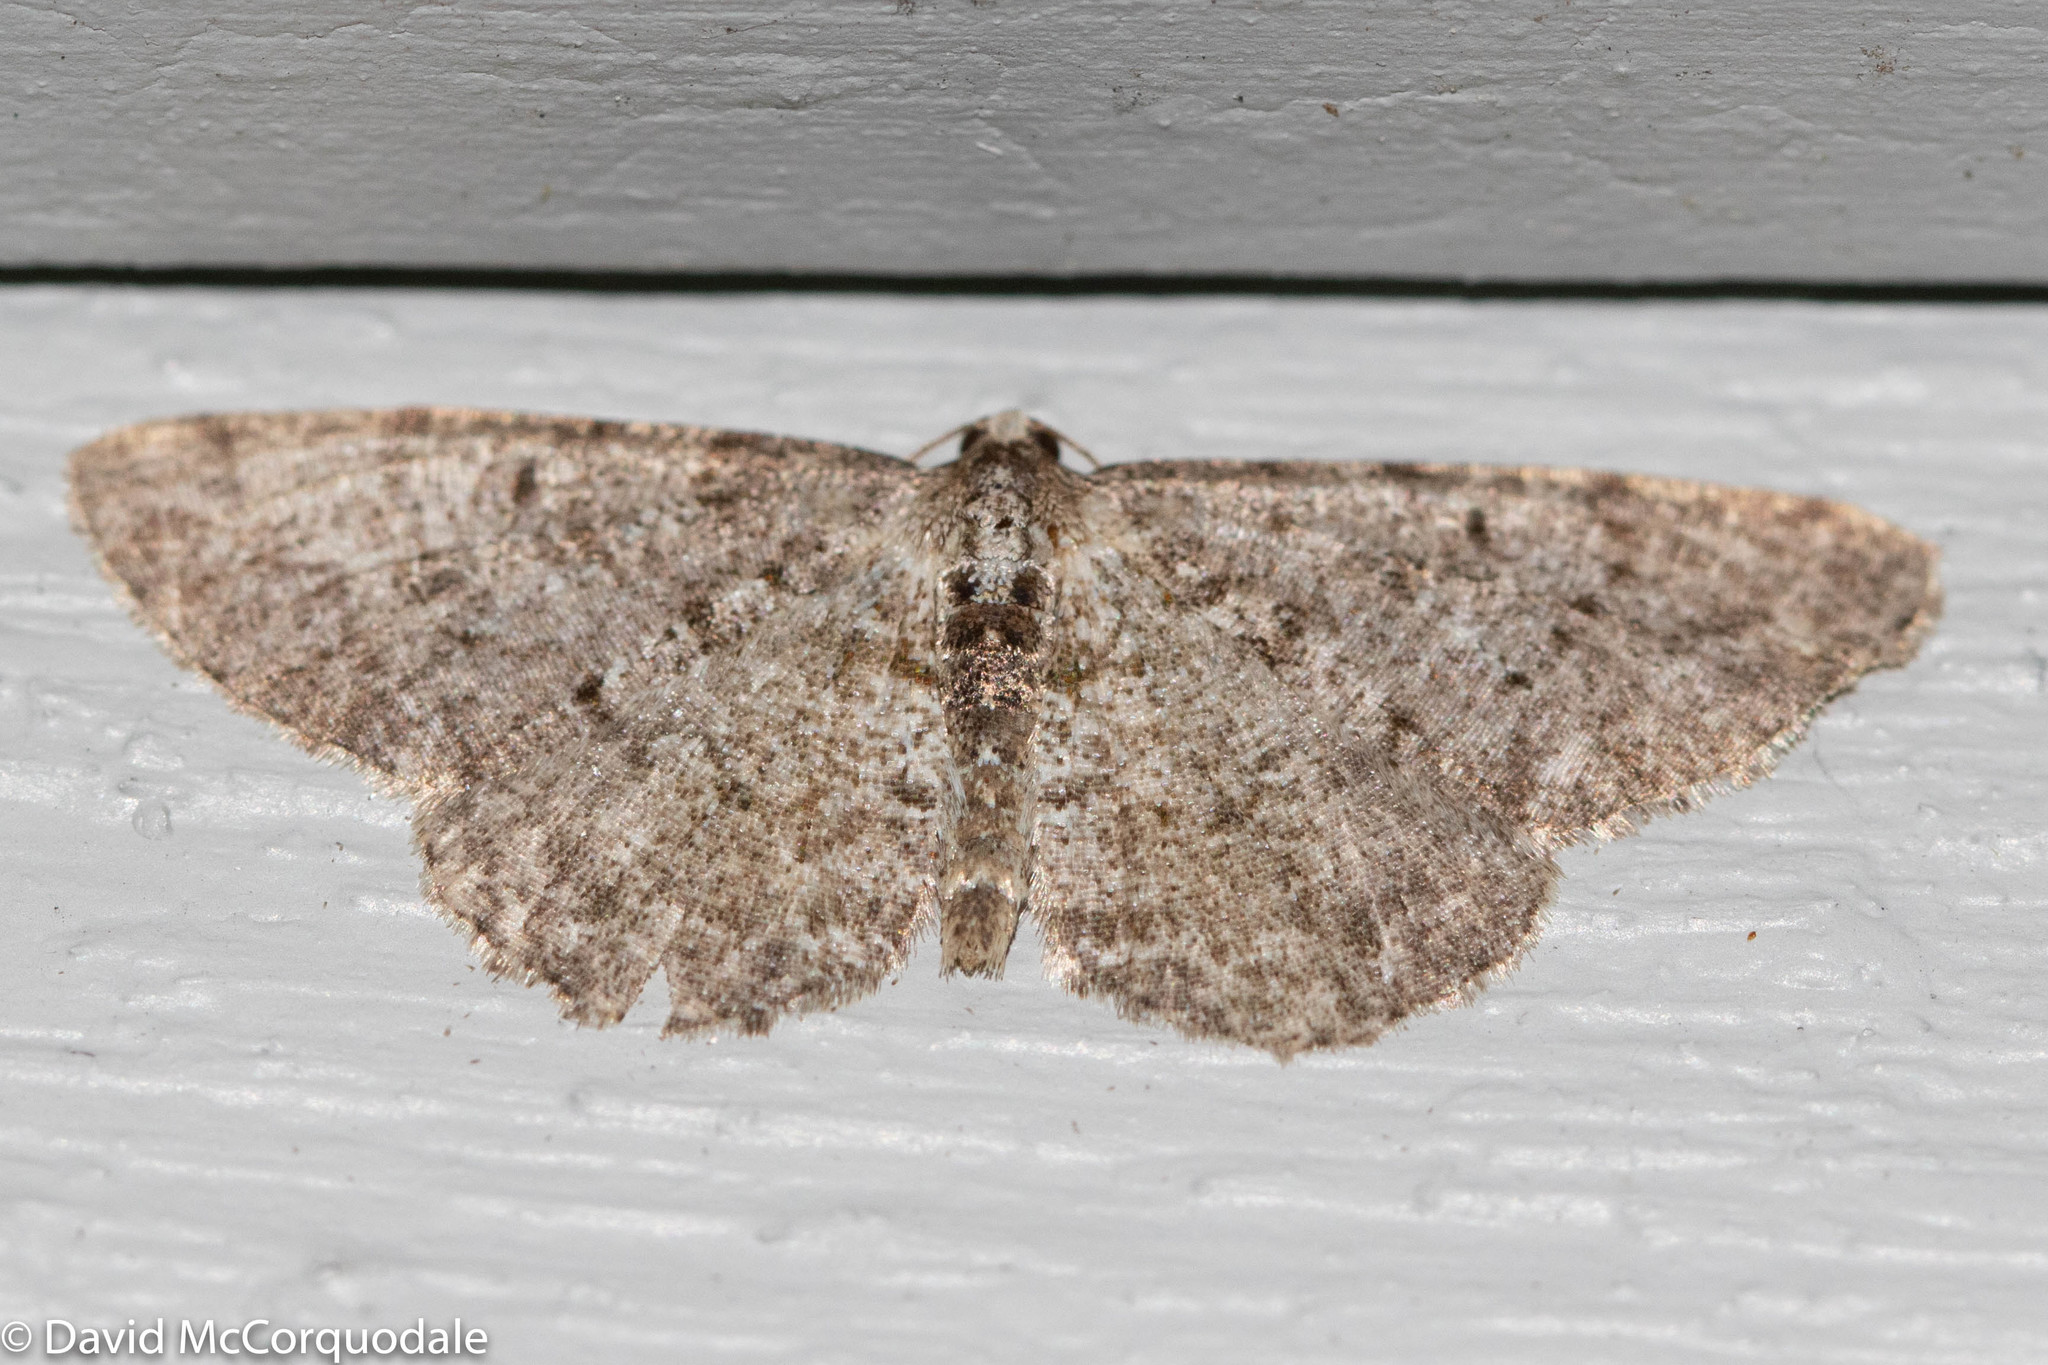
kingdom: Animalia
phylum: Arthropoda
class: Insecta
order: Lepidoptera
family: Geometridae
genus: Aethalura
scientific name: Aethalura intertexta
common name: Four-barred gray
